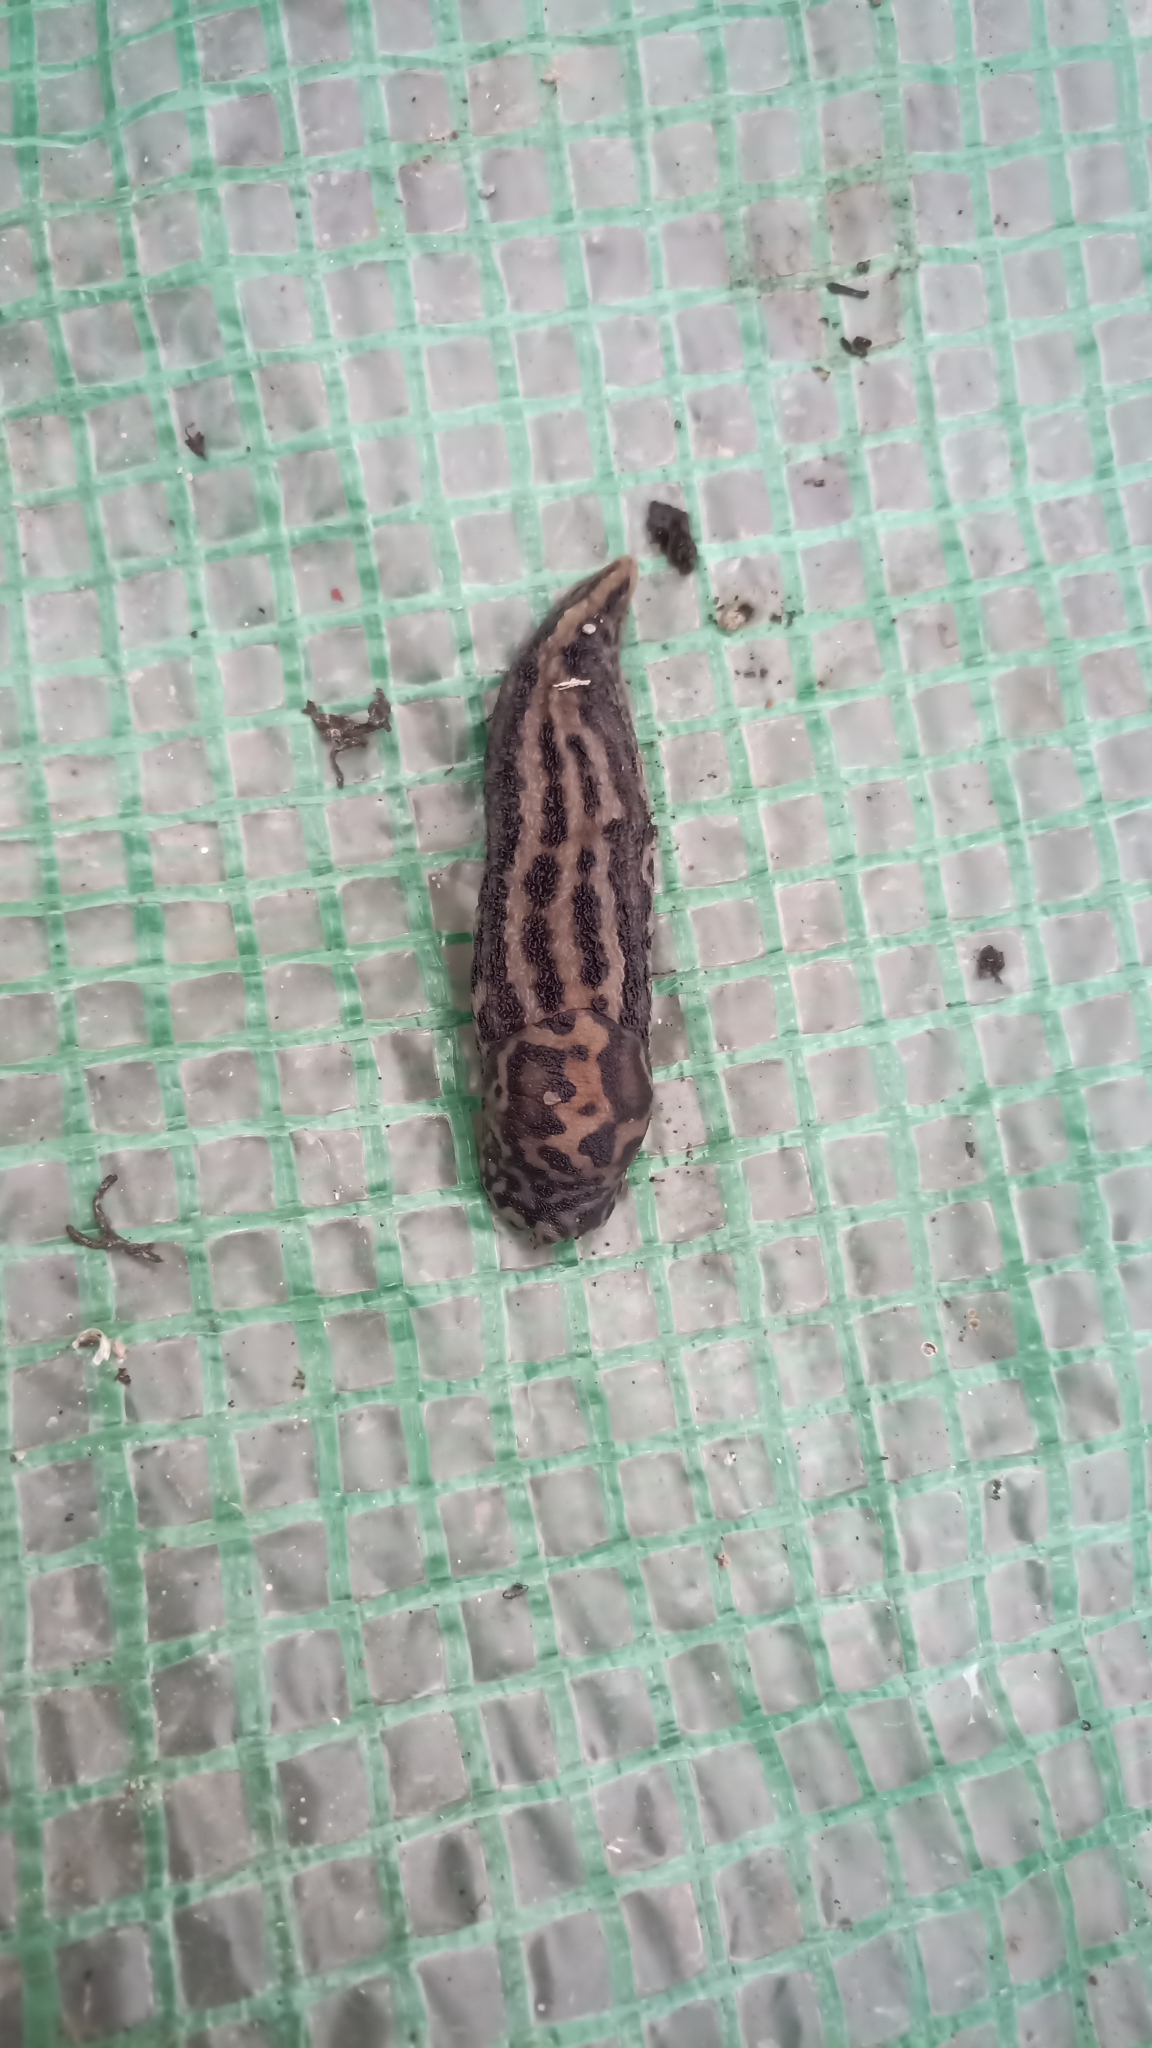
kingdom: Animalia
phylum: Mollusca
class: Gastropoda
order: Stylommatophora
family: Limacidae
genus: Limax
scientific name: Limax maximus
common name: Great grey slug
